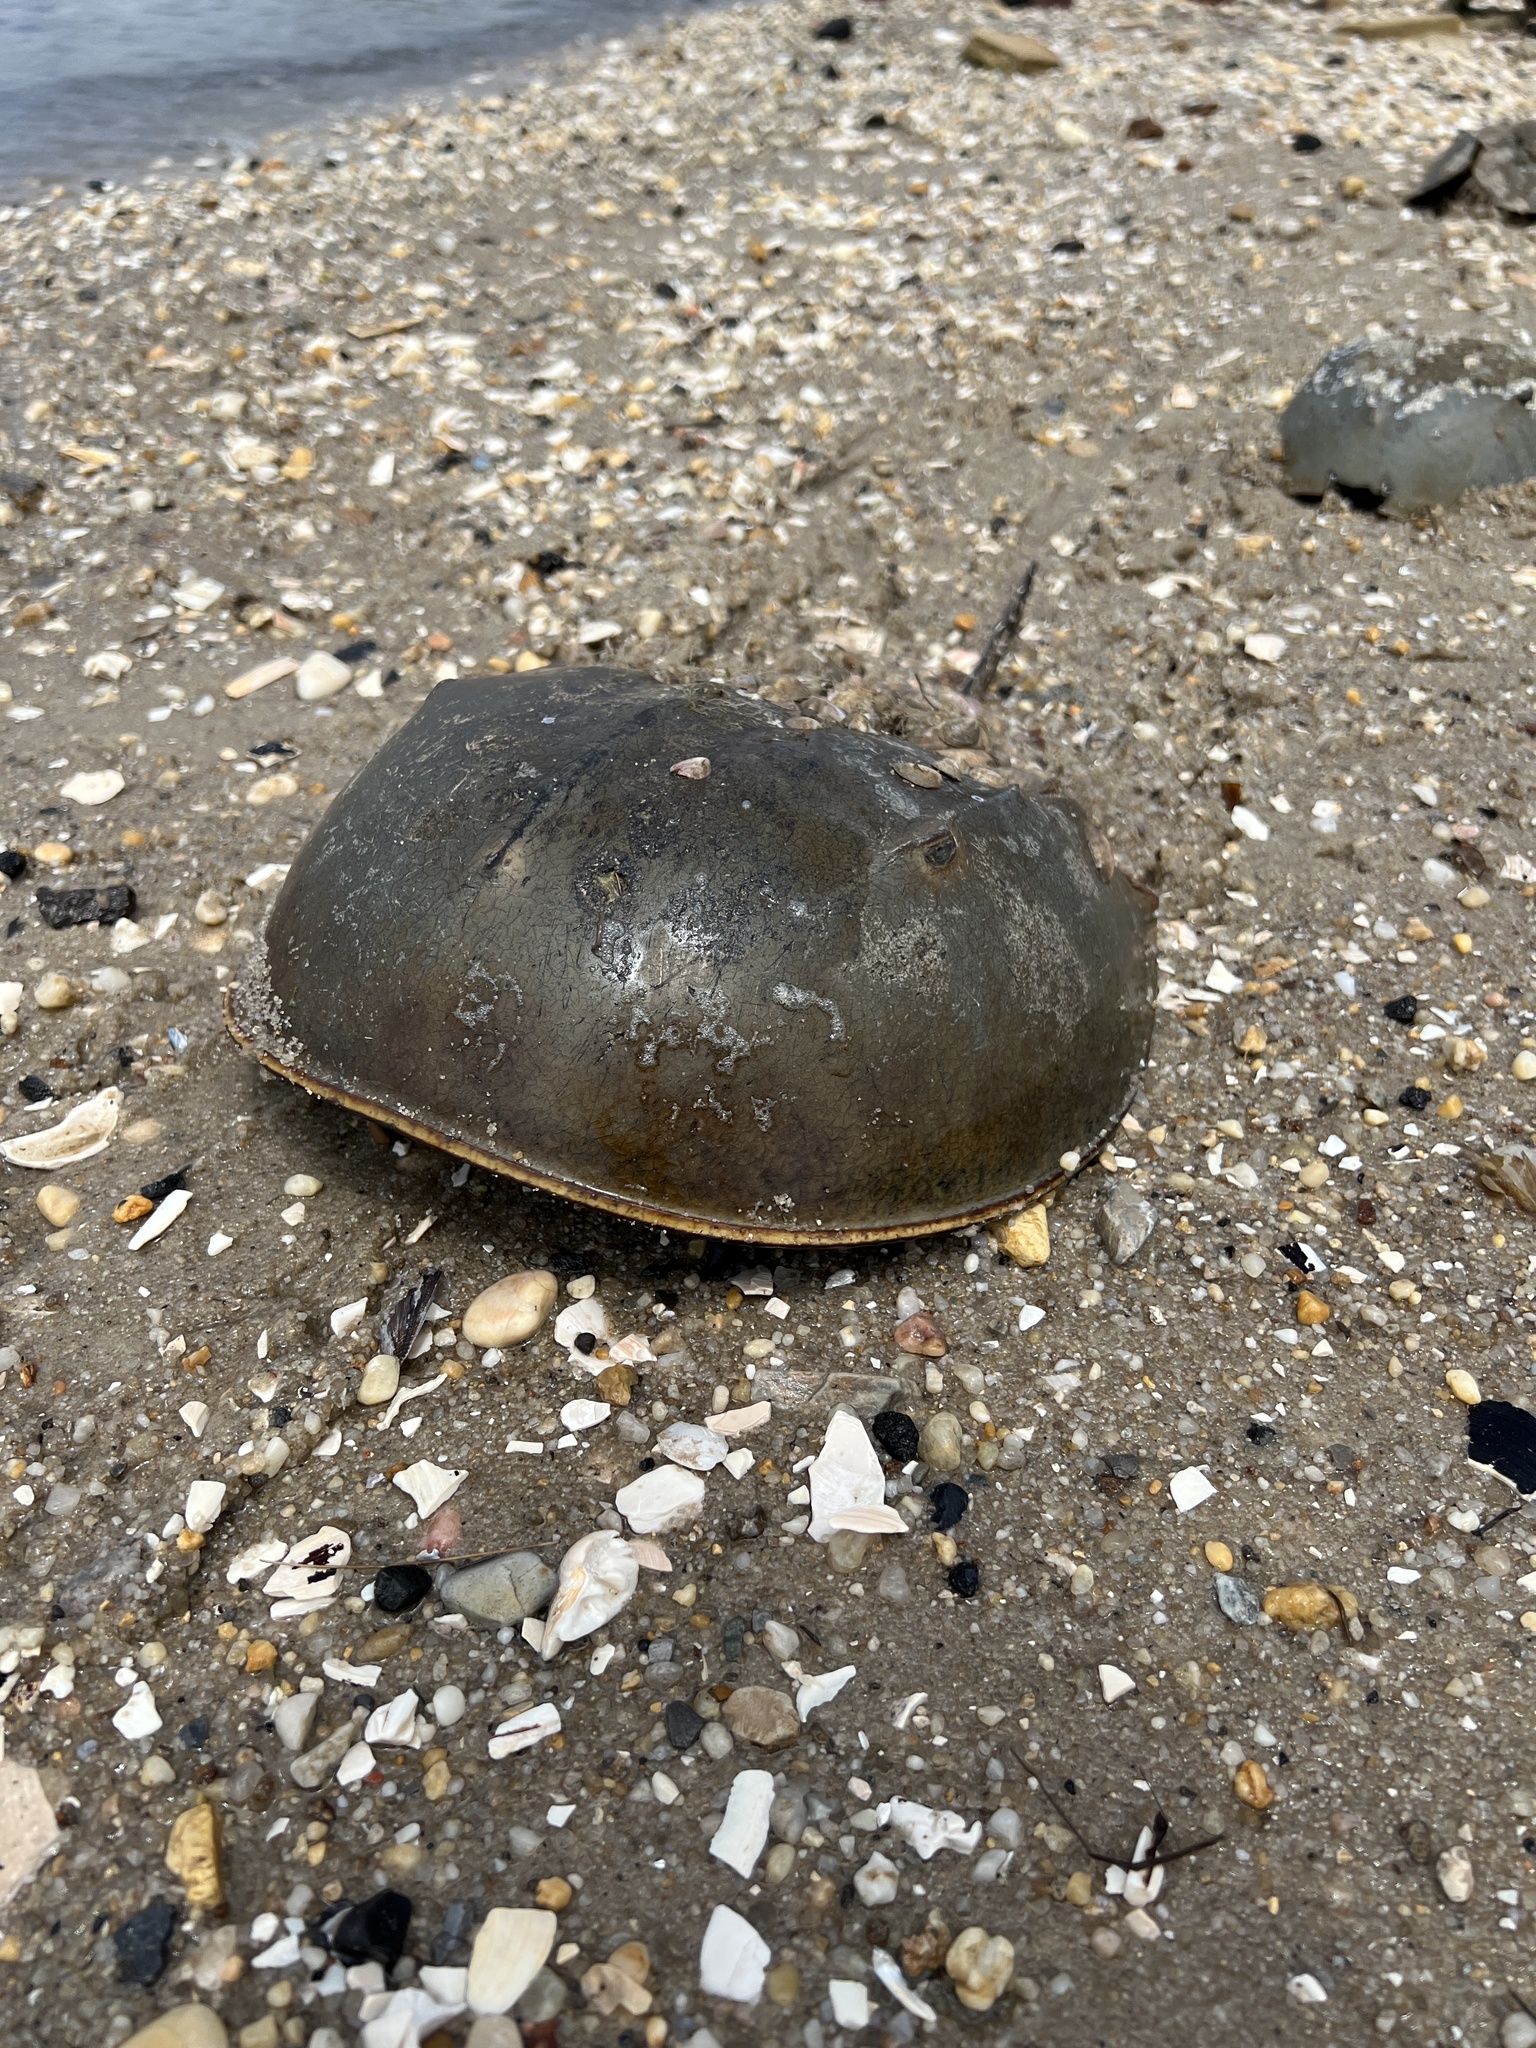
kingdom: Animalia
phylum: Arthropoda
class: Merostomata
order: Xiphosurida
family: Limulidae
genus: Limulus
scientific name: Limulus polyphemus
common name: Horseshoe crab
